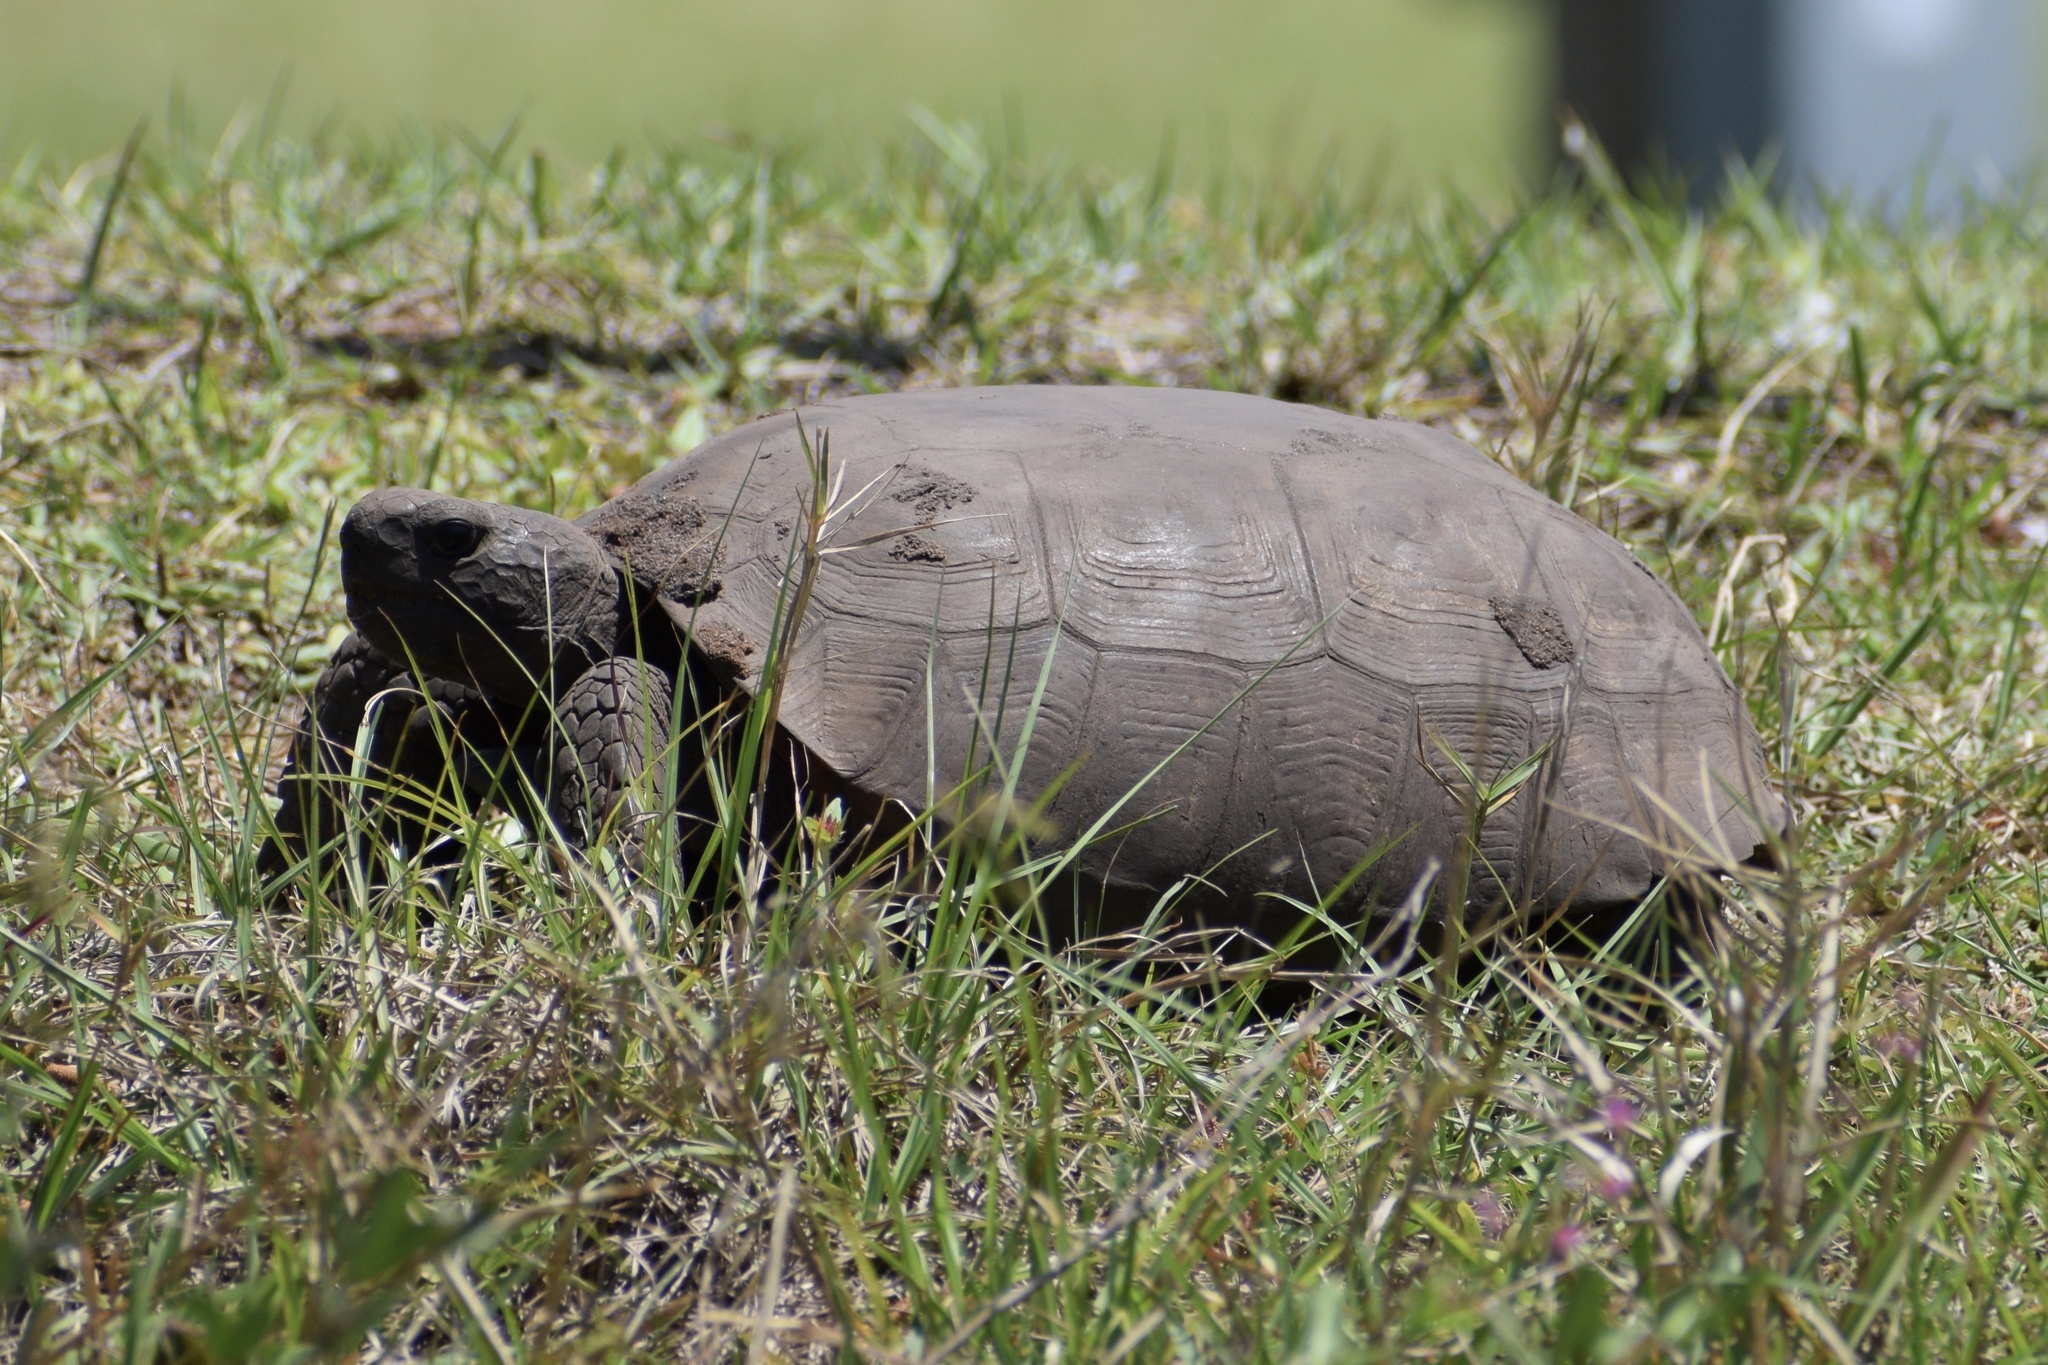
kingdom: Animalia
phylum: Chordata
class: Testudines
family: Testudinidae
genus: Gopherus
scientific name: Gopherus polyphemus
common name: Florida gopher tortoise
